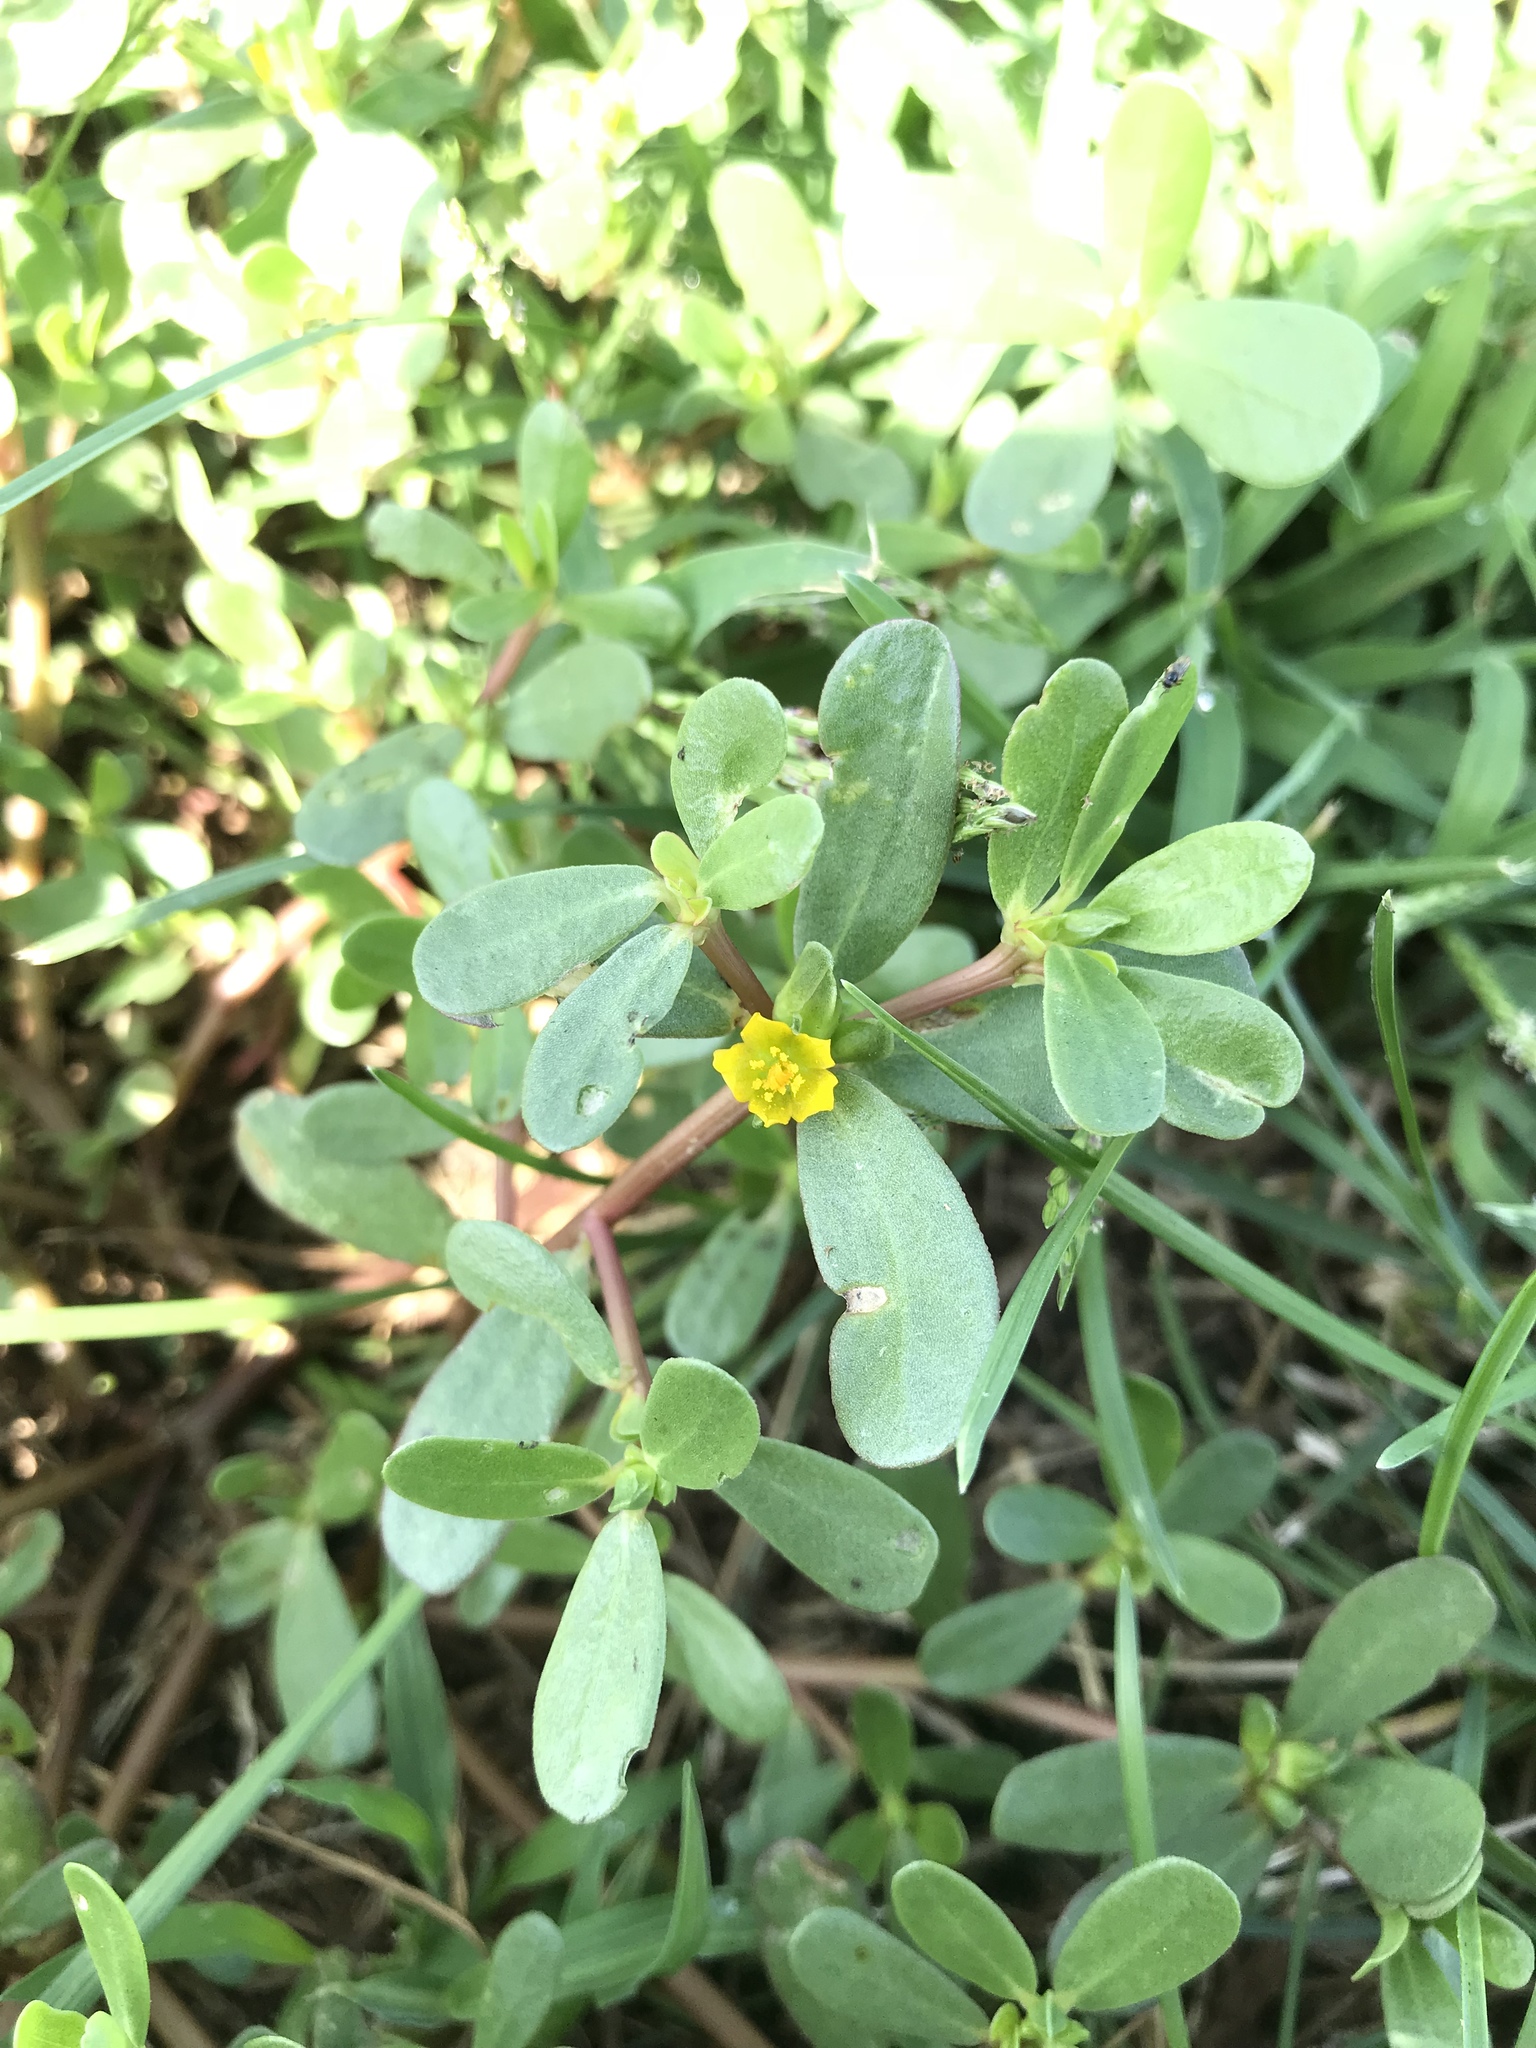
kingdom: Plantae
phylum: Tracheophyta
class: Magnoliopsida
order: Caryophyllales
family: Portulacaceae
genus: Portulaca
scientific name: Portulaca oleracea
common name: Common purslane
